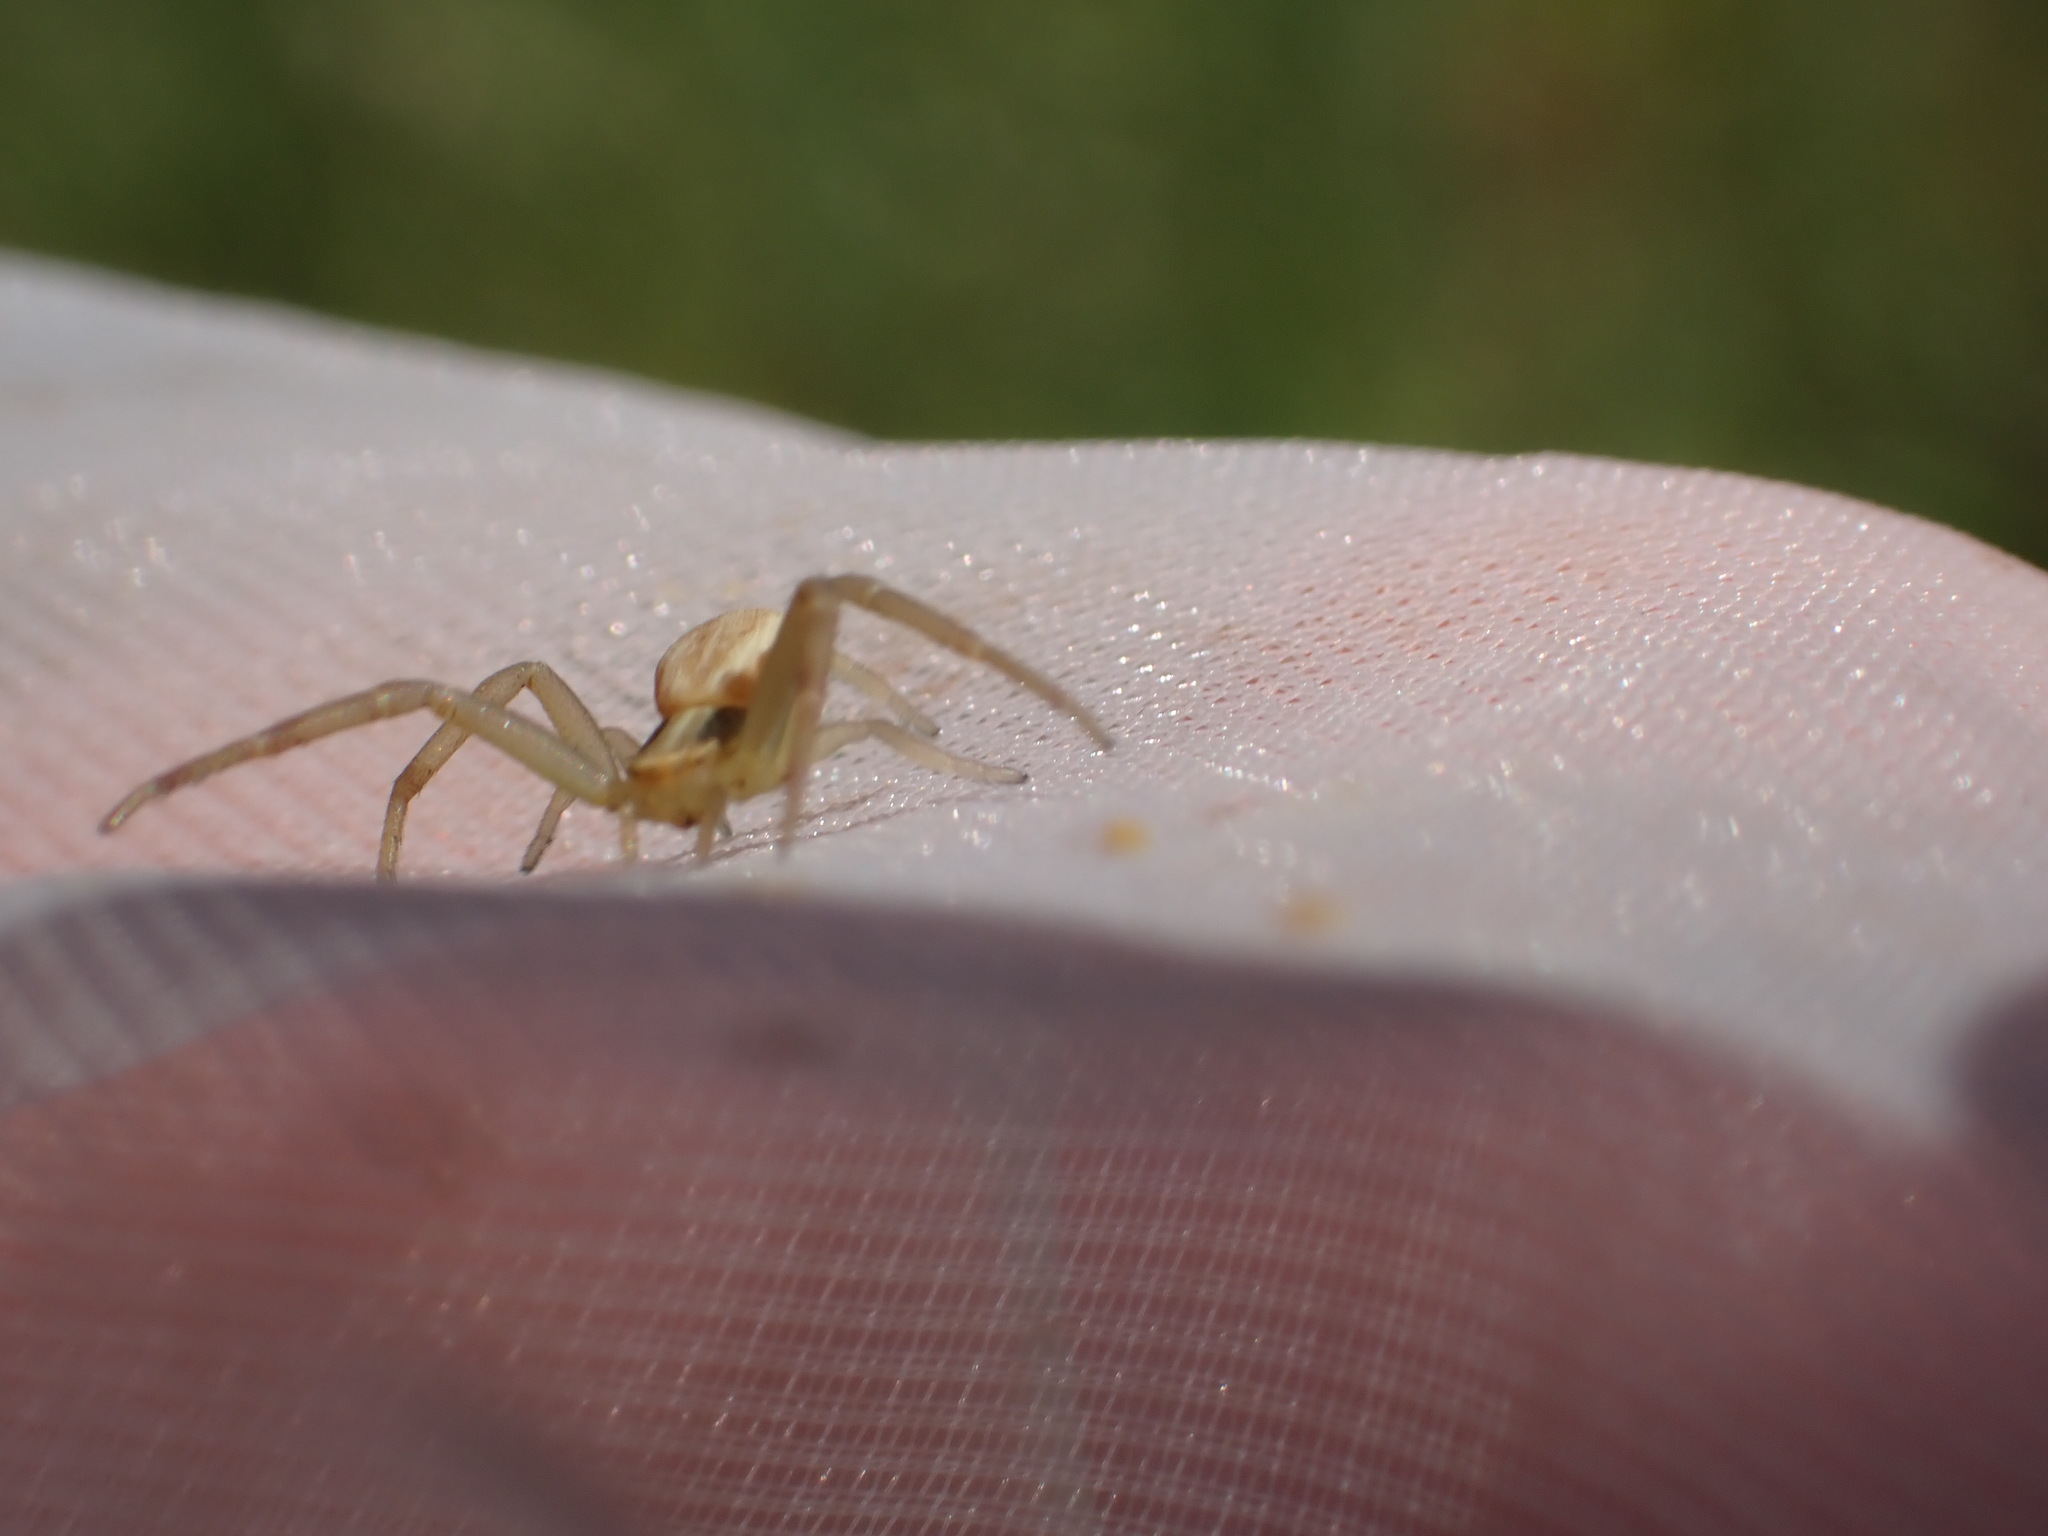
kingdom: Animalia
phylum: Arthropoda
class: Arachnida
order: Araneae
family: Thomisidae
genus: Runcinia
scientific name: Runcinia grammica
